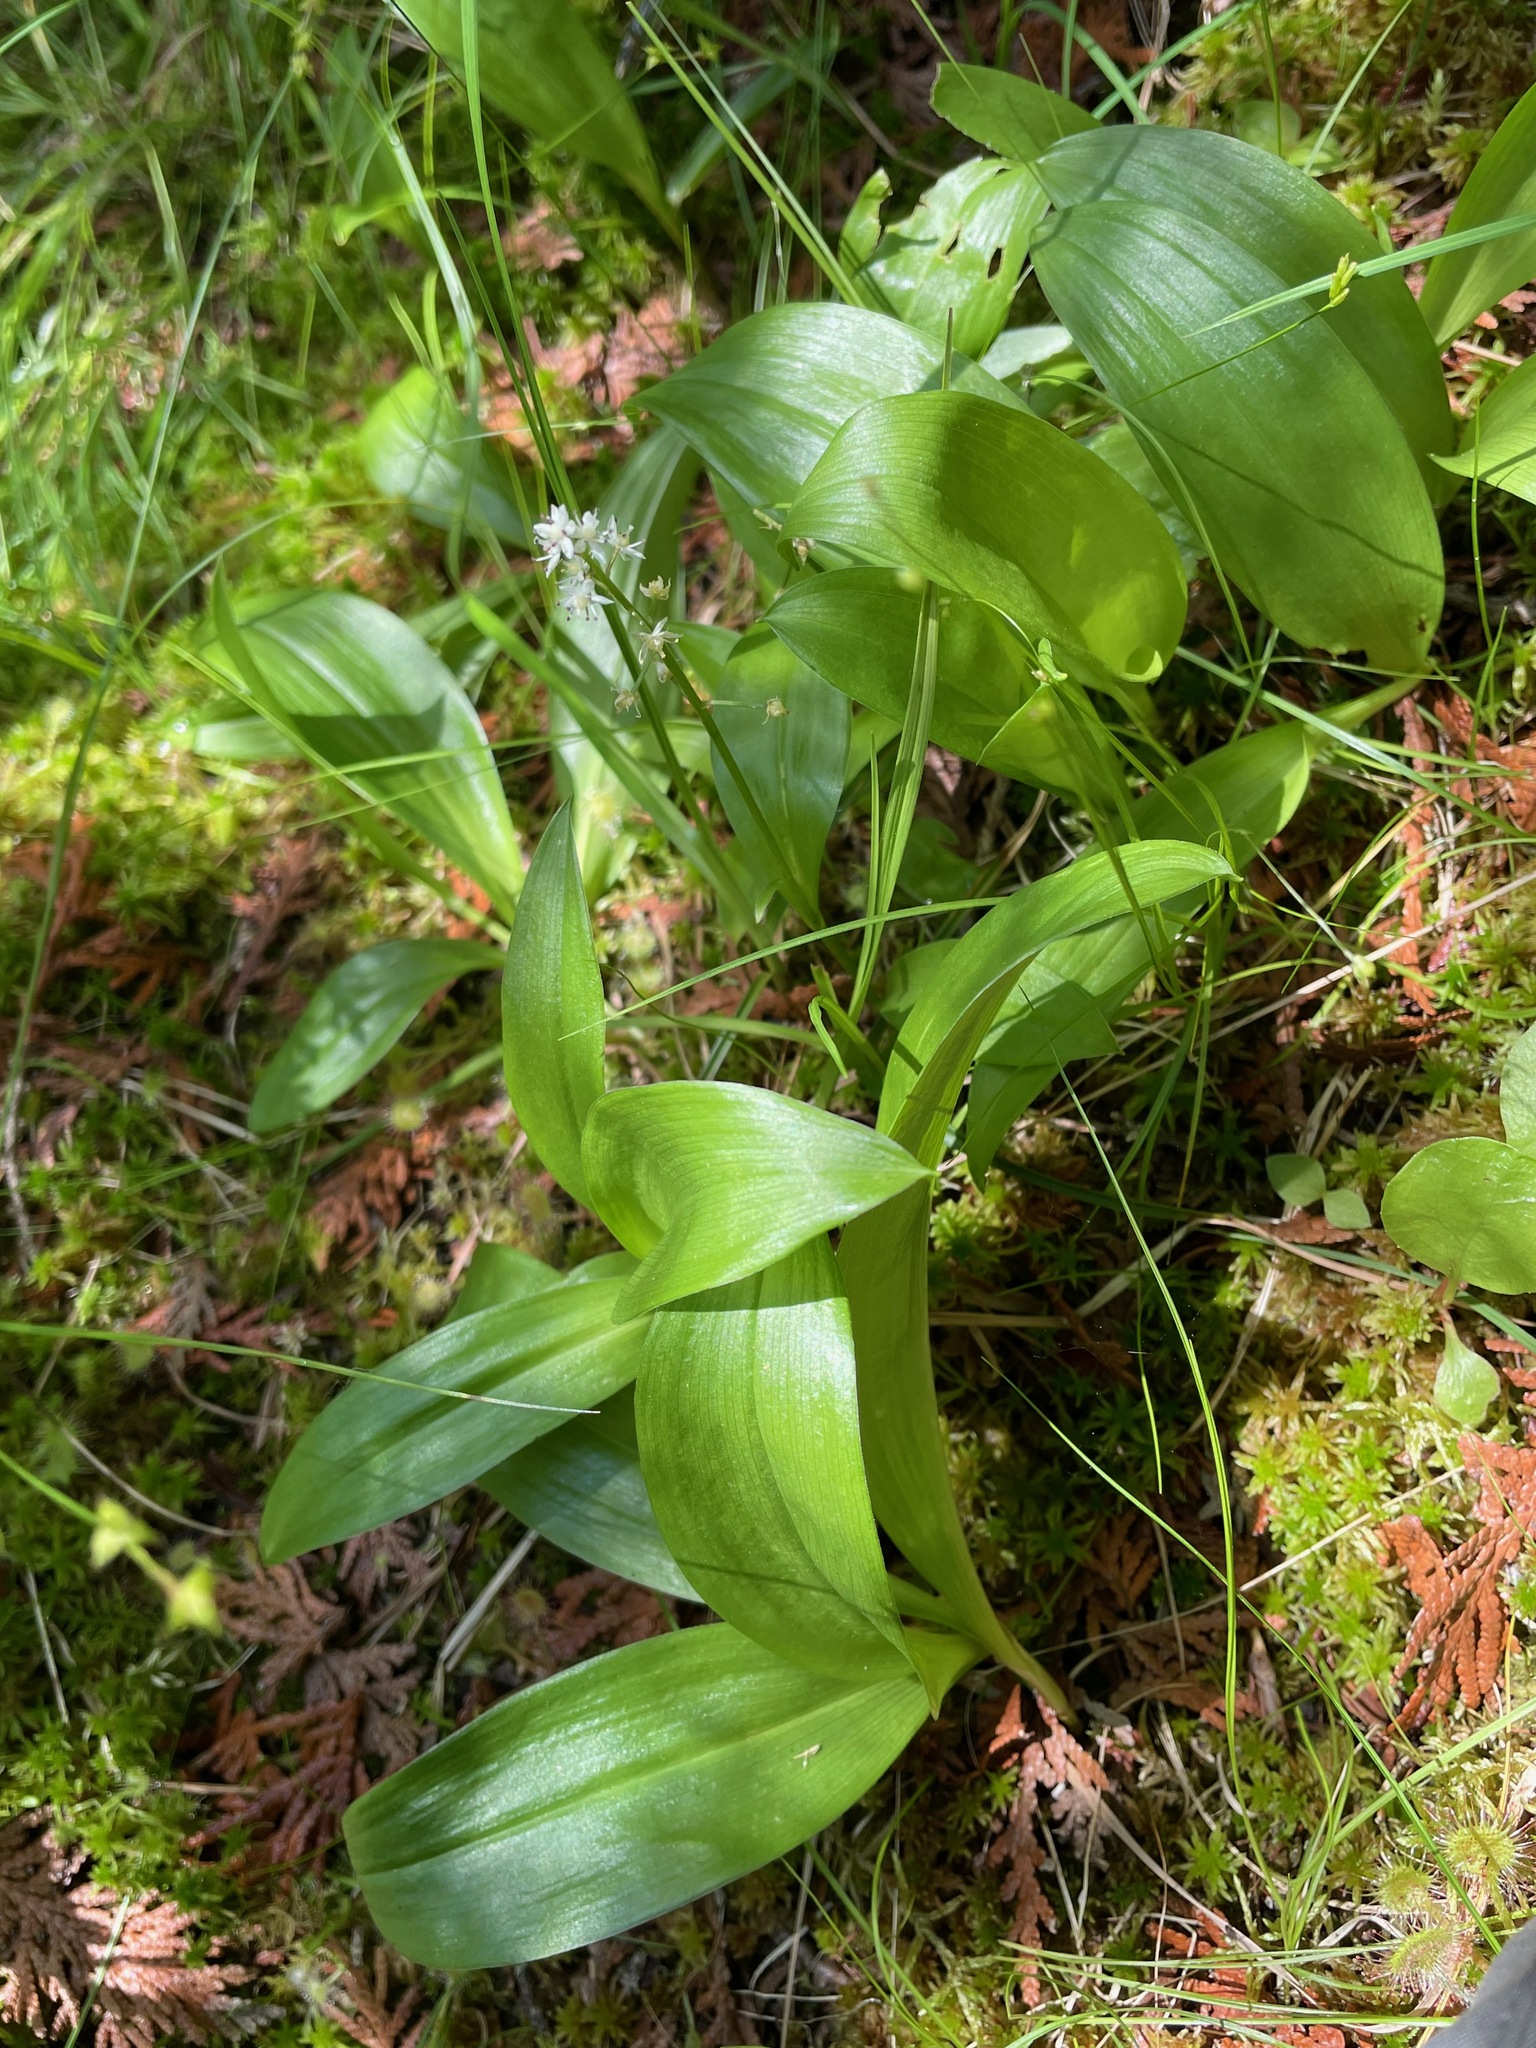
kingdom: Plantae
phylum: Tracheophyta
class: Liliopsida
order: Asparagales
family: Asparagaceae
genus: Maianthemum
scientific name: Maianthemum trifolium
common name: Swamp false solomon's seal
